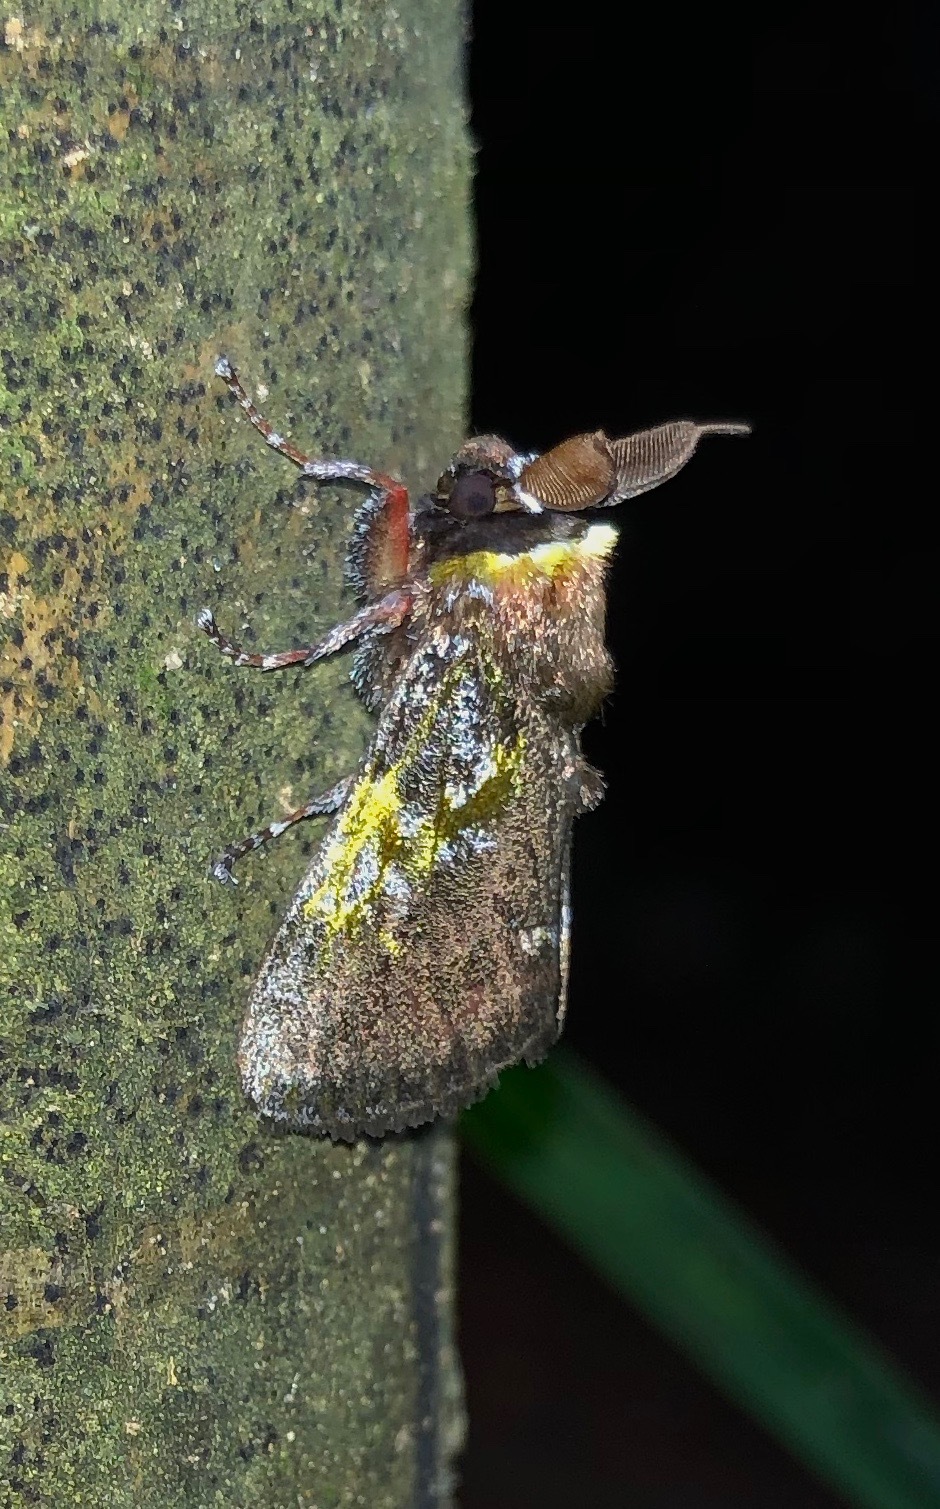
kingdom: Animalia
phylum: Arthropoda
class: Insecta
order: Lepidoptera
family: Aididae
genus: Aidos
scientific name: Aidos yamouna
